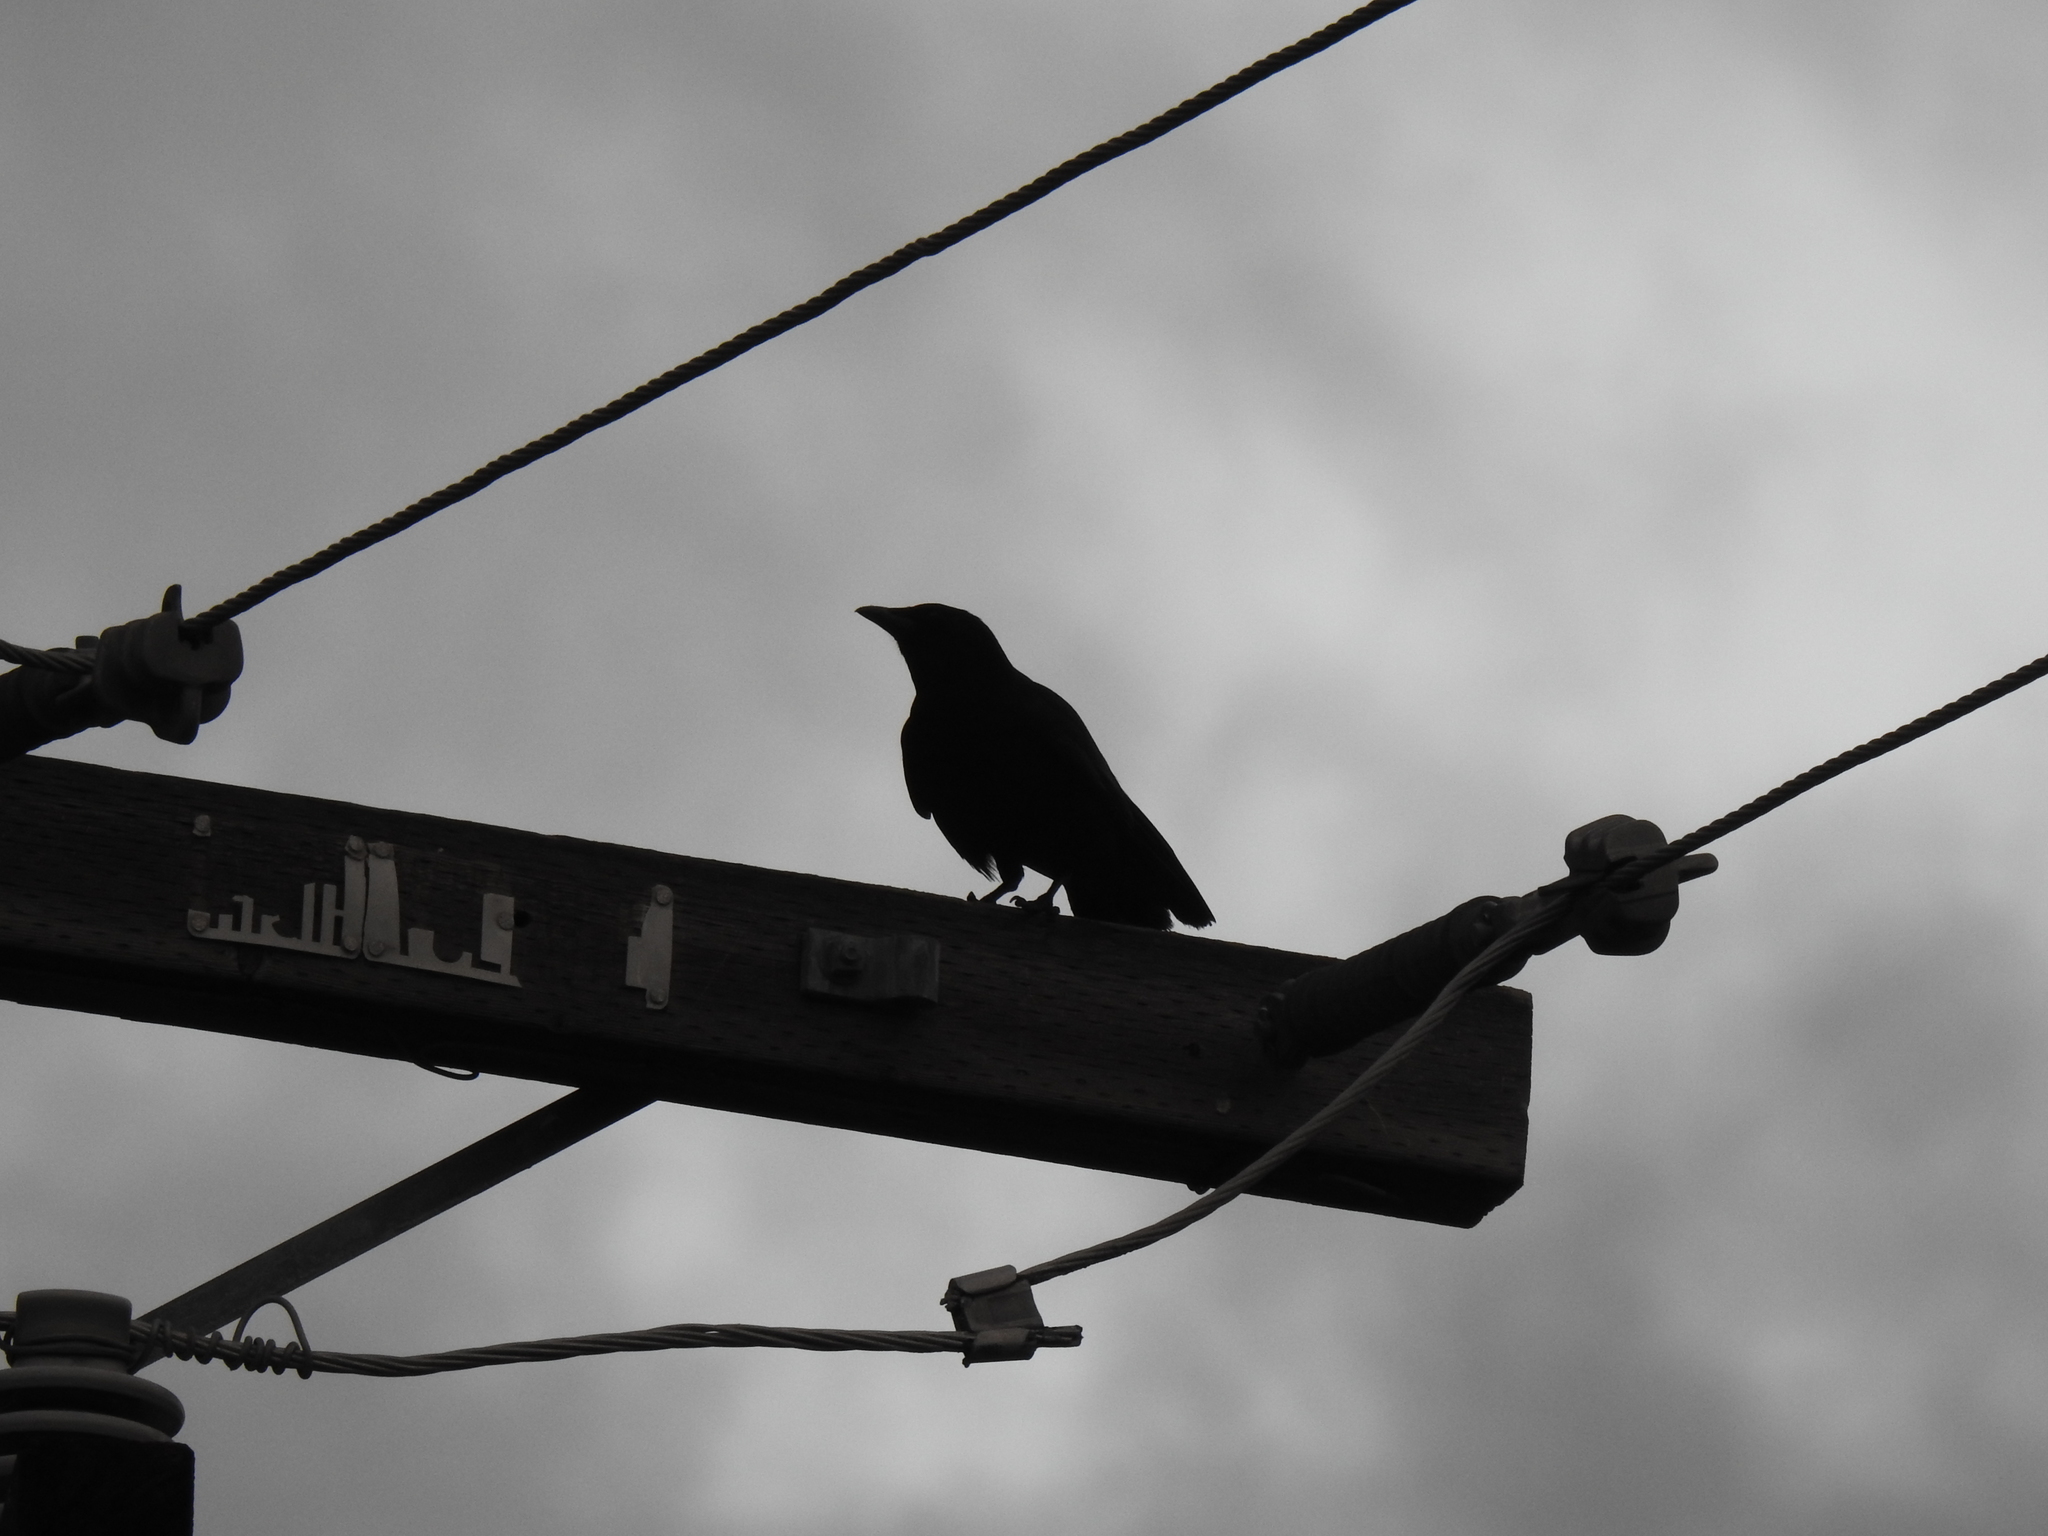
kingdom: Animalia
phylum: Chordata
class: Aves
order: Passeriformes
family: Corvidae
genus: Corvus
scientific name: Corvus brachyrhynchos
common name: American crow
